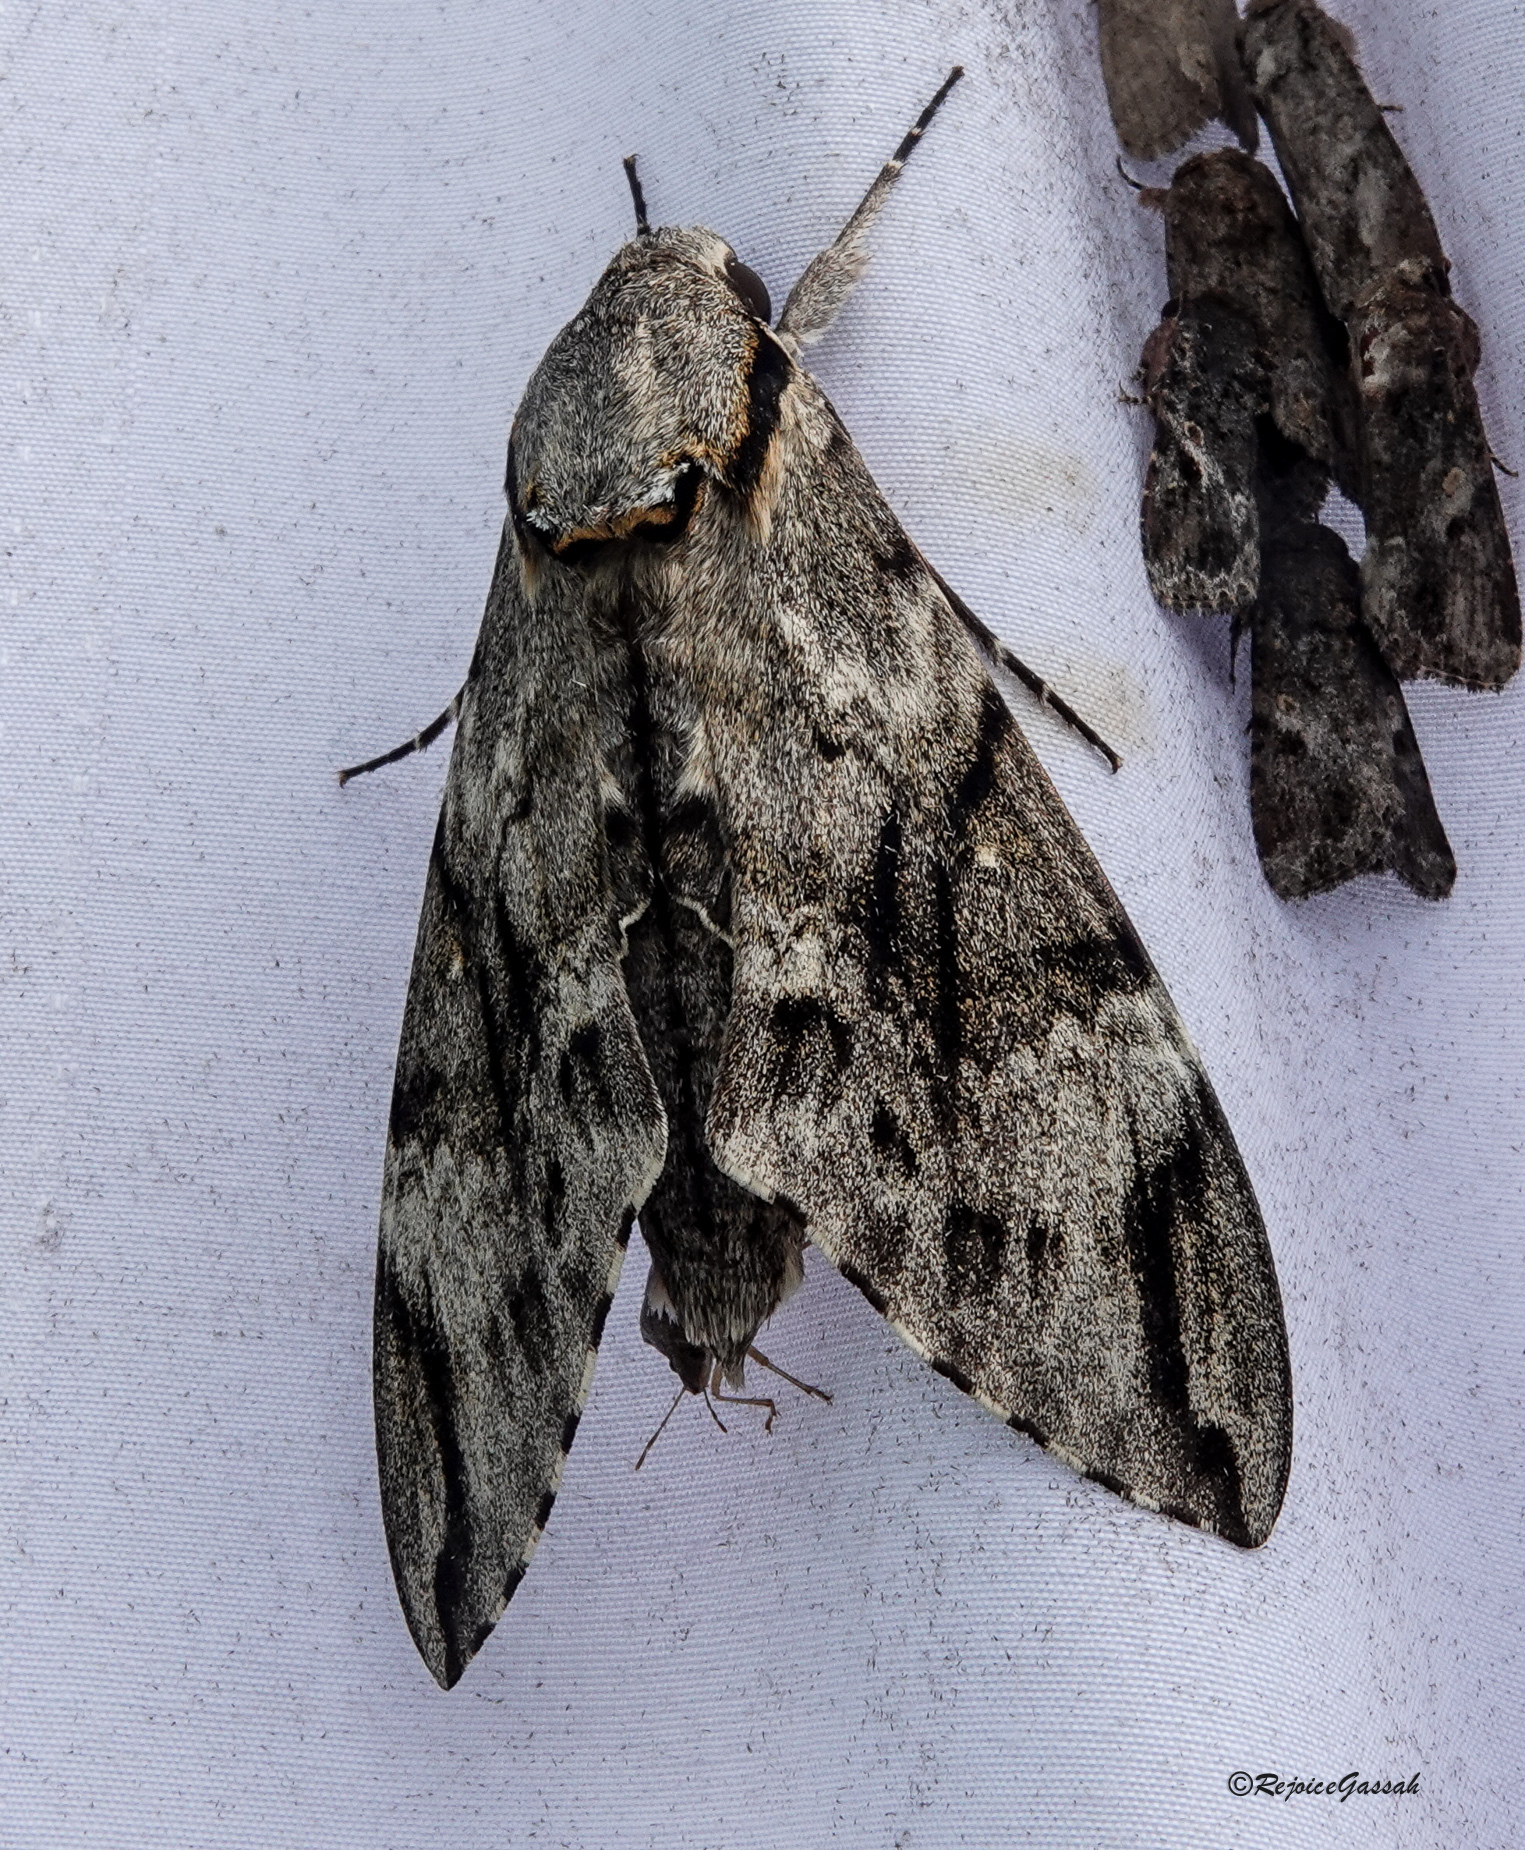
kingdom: Animalia
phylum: Arthropoda
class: Insecta
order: Lepidoptera
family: Sphingidae
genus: Psilogramma
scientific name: Psilogramma increta
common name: Gray hawk moth
